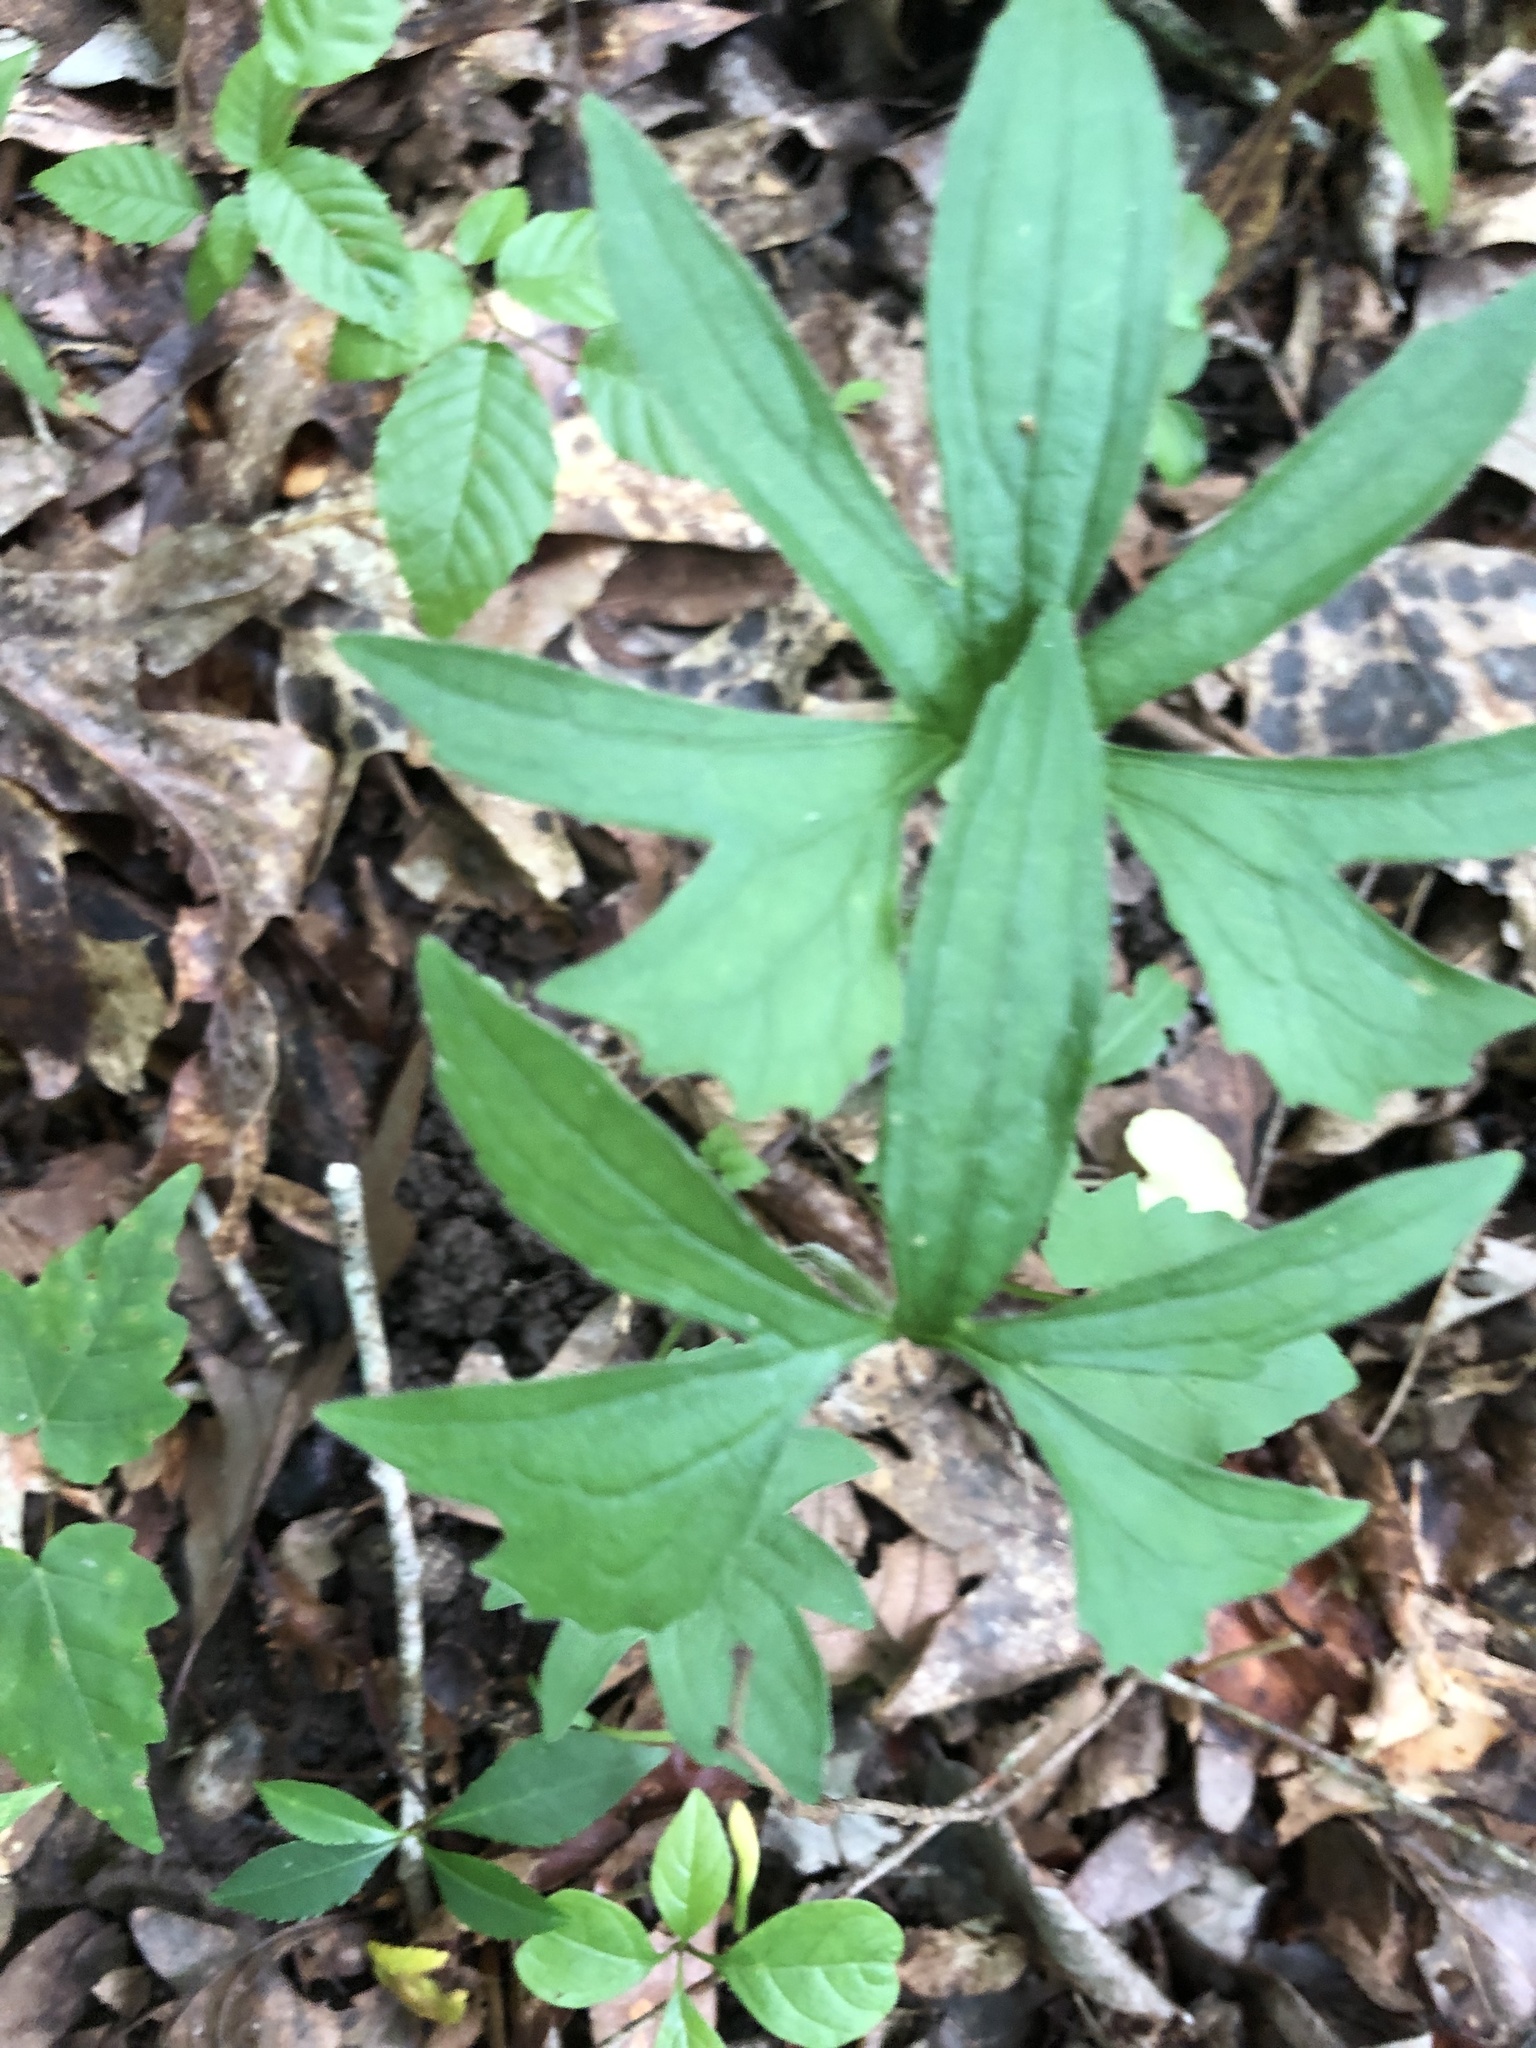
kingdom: Plantae
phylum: Tracheophyta
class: Magnoliopsida
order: Malpighiales
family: Violaceae
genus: Viola
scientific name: Viola palmata
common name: Early blue violet
